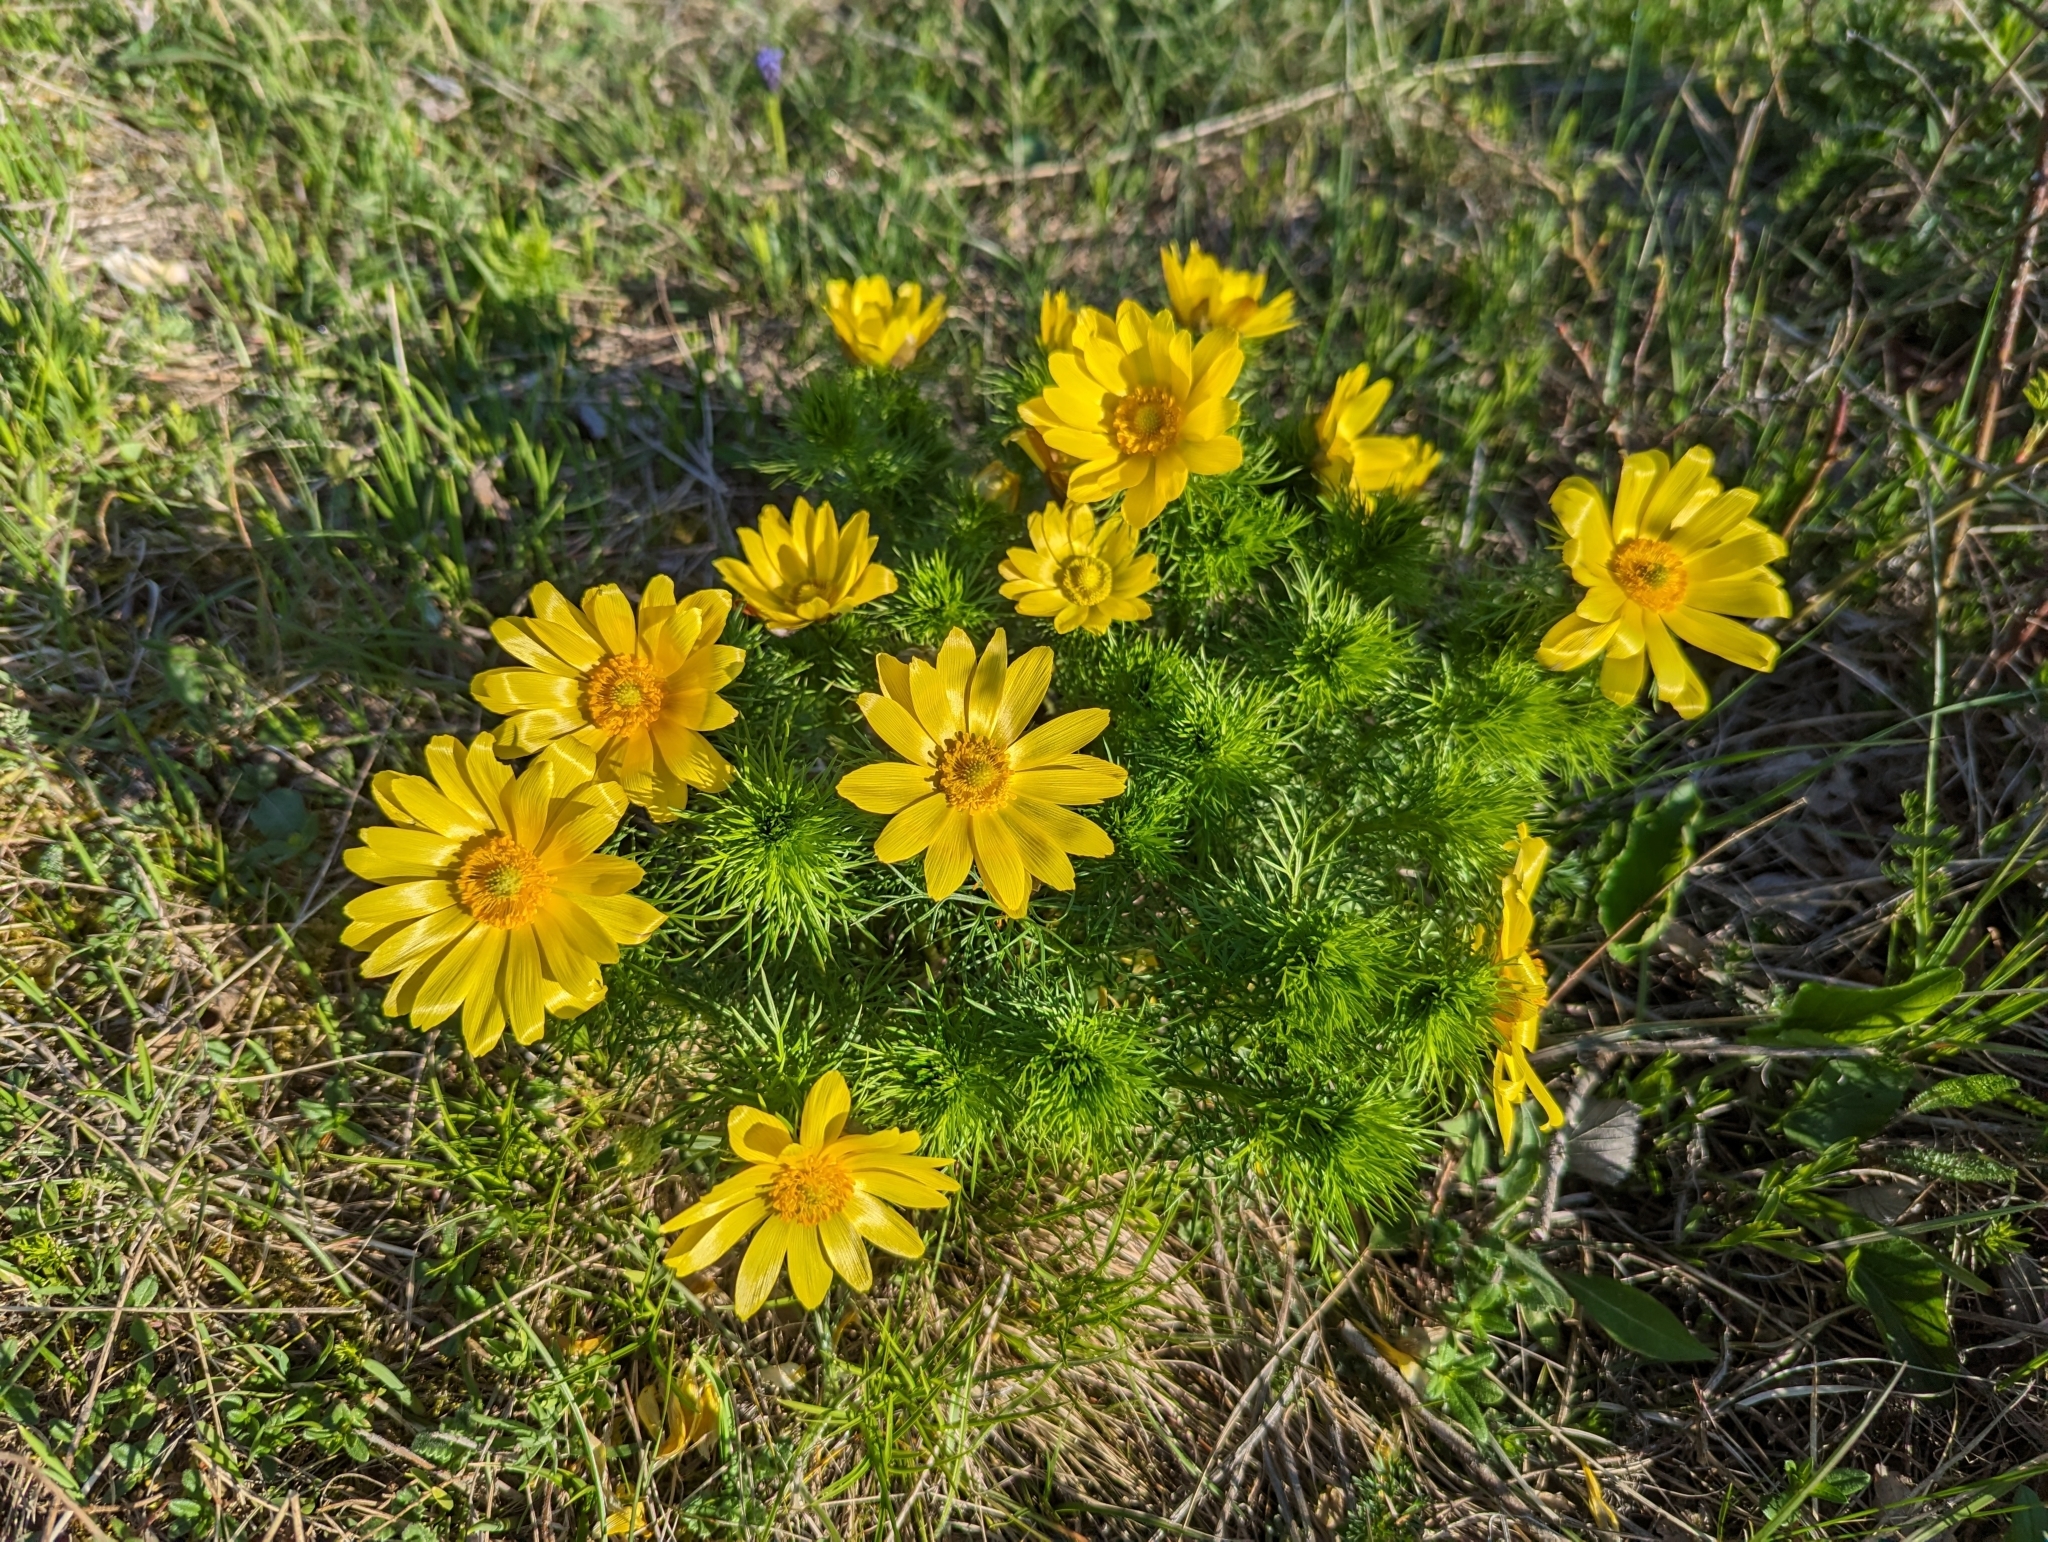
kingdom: Plantae
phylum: Tracheophyta
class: Magnoliopsida
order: Ranunculales
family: Ranunculaceae
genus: Adonis
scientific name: Adonis vernalis
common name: Yellow pheasants-eye
